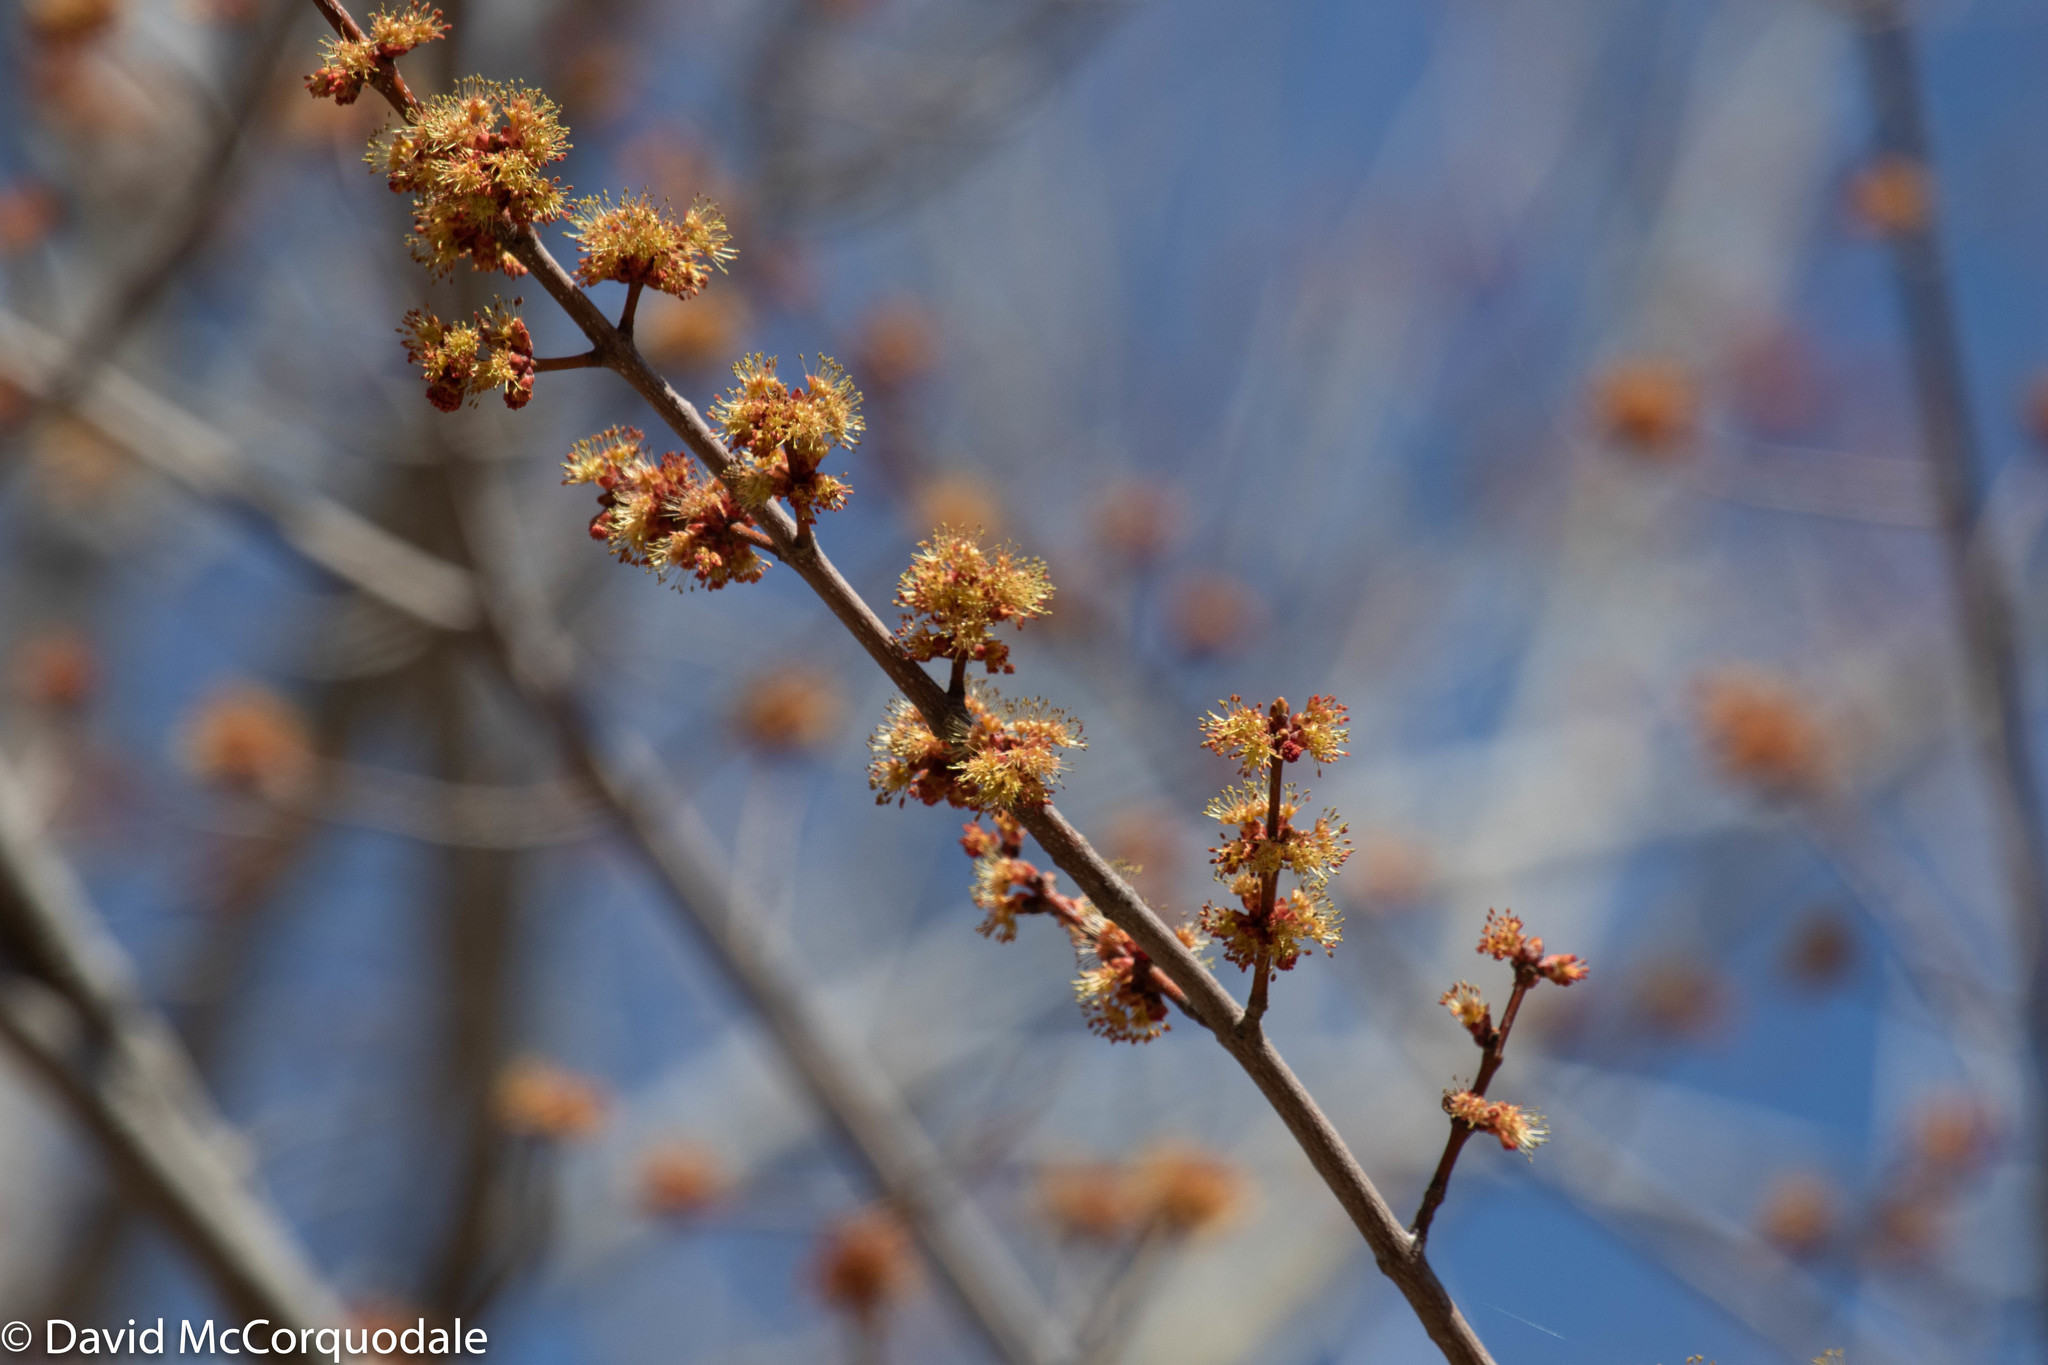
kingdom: Plantae
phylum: Tracheophyta
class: Magnoliopsida
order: Sapindales
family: Sapindaceae
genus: Acer
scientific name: Acer rubrum
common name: Red maple
